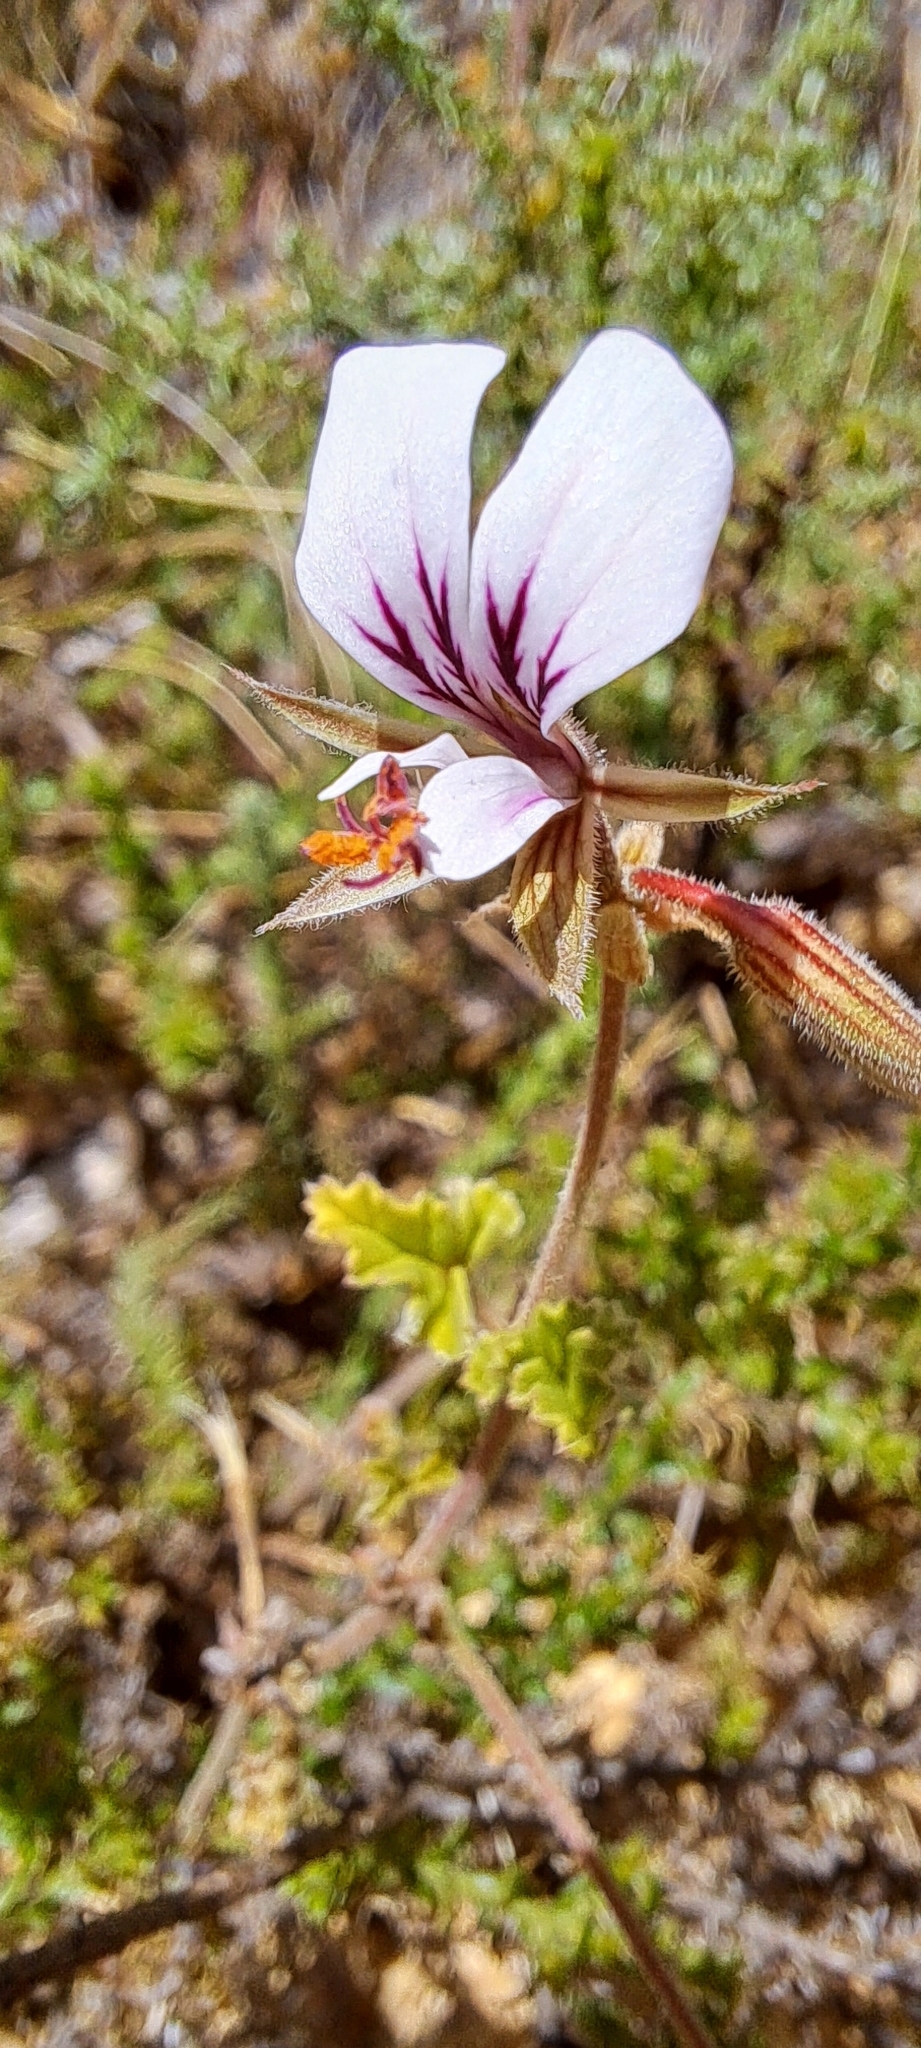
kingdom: Plantae
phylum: Tracheophyta
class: Magnoliopsida
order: Geraniales
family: Geraniaceae
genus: Pelargonium
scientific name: Pelargonium candicans
